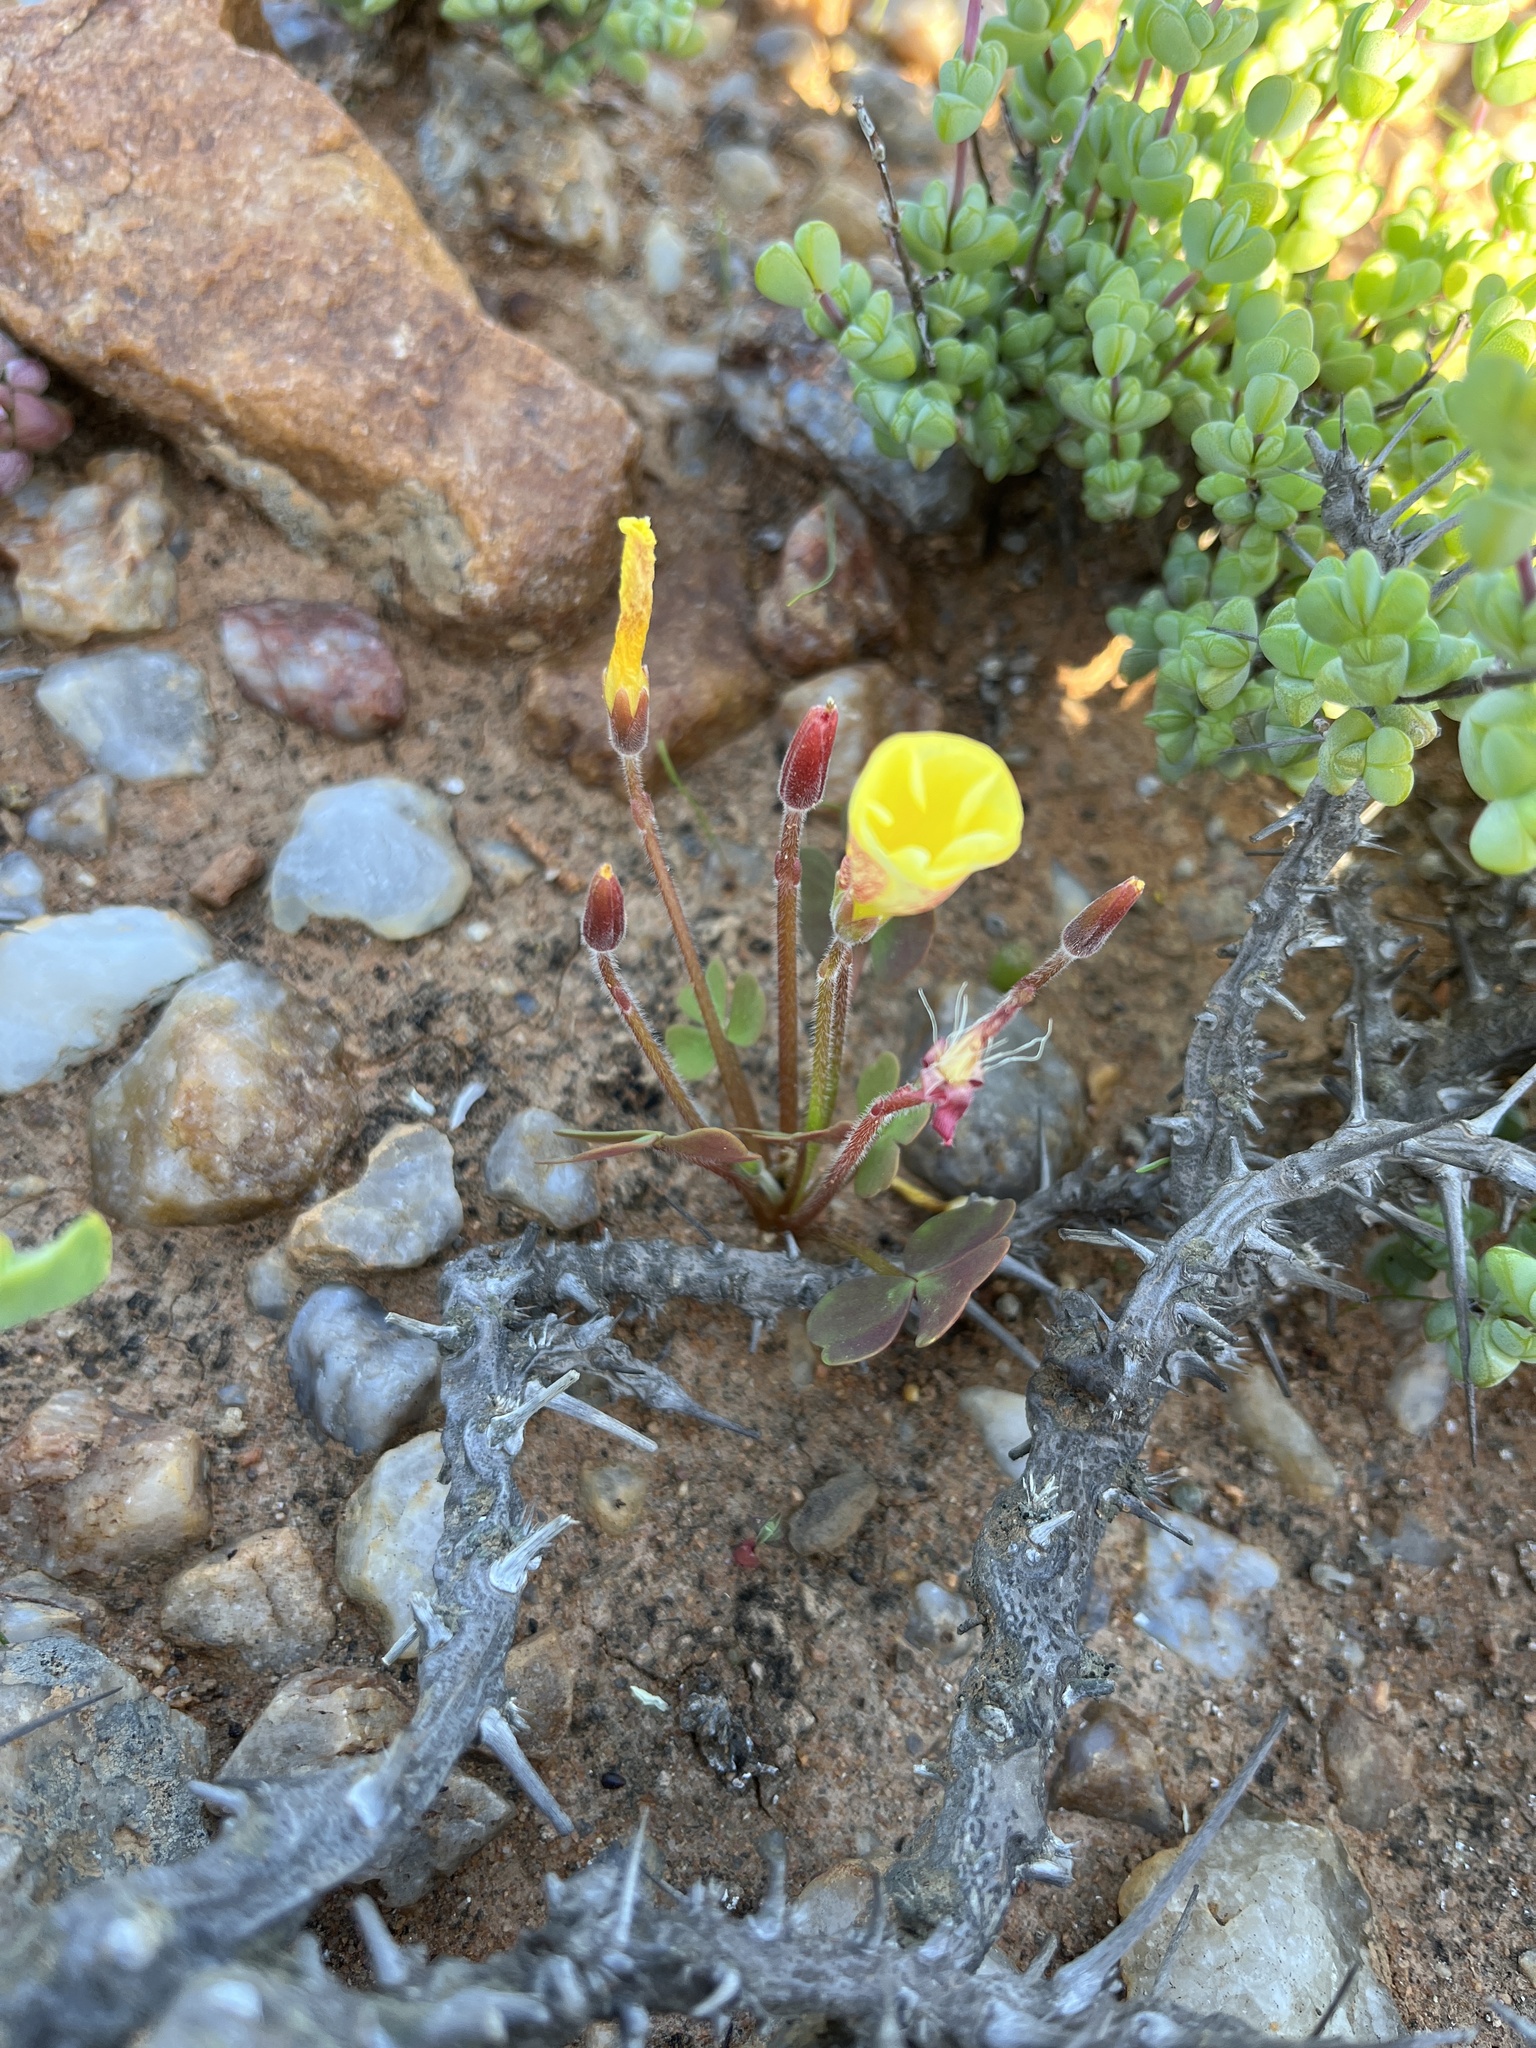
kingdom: Plantae
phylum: Tracheophyta
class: Magnoliopsida
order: Oxalidales
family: Oxalidaceae
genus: Oxalis
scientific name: Oxalis obtusa
